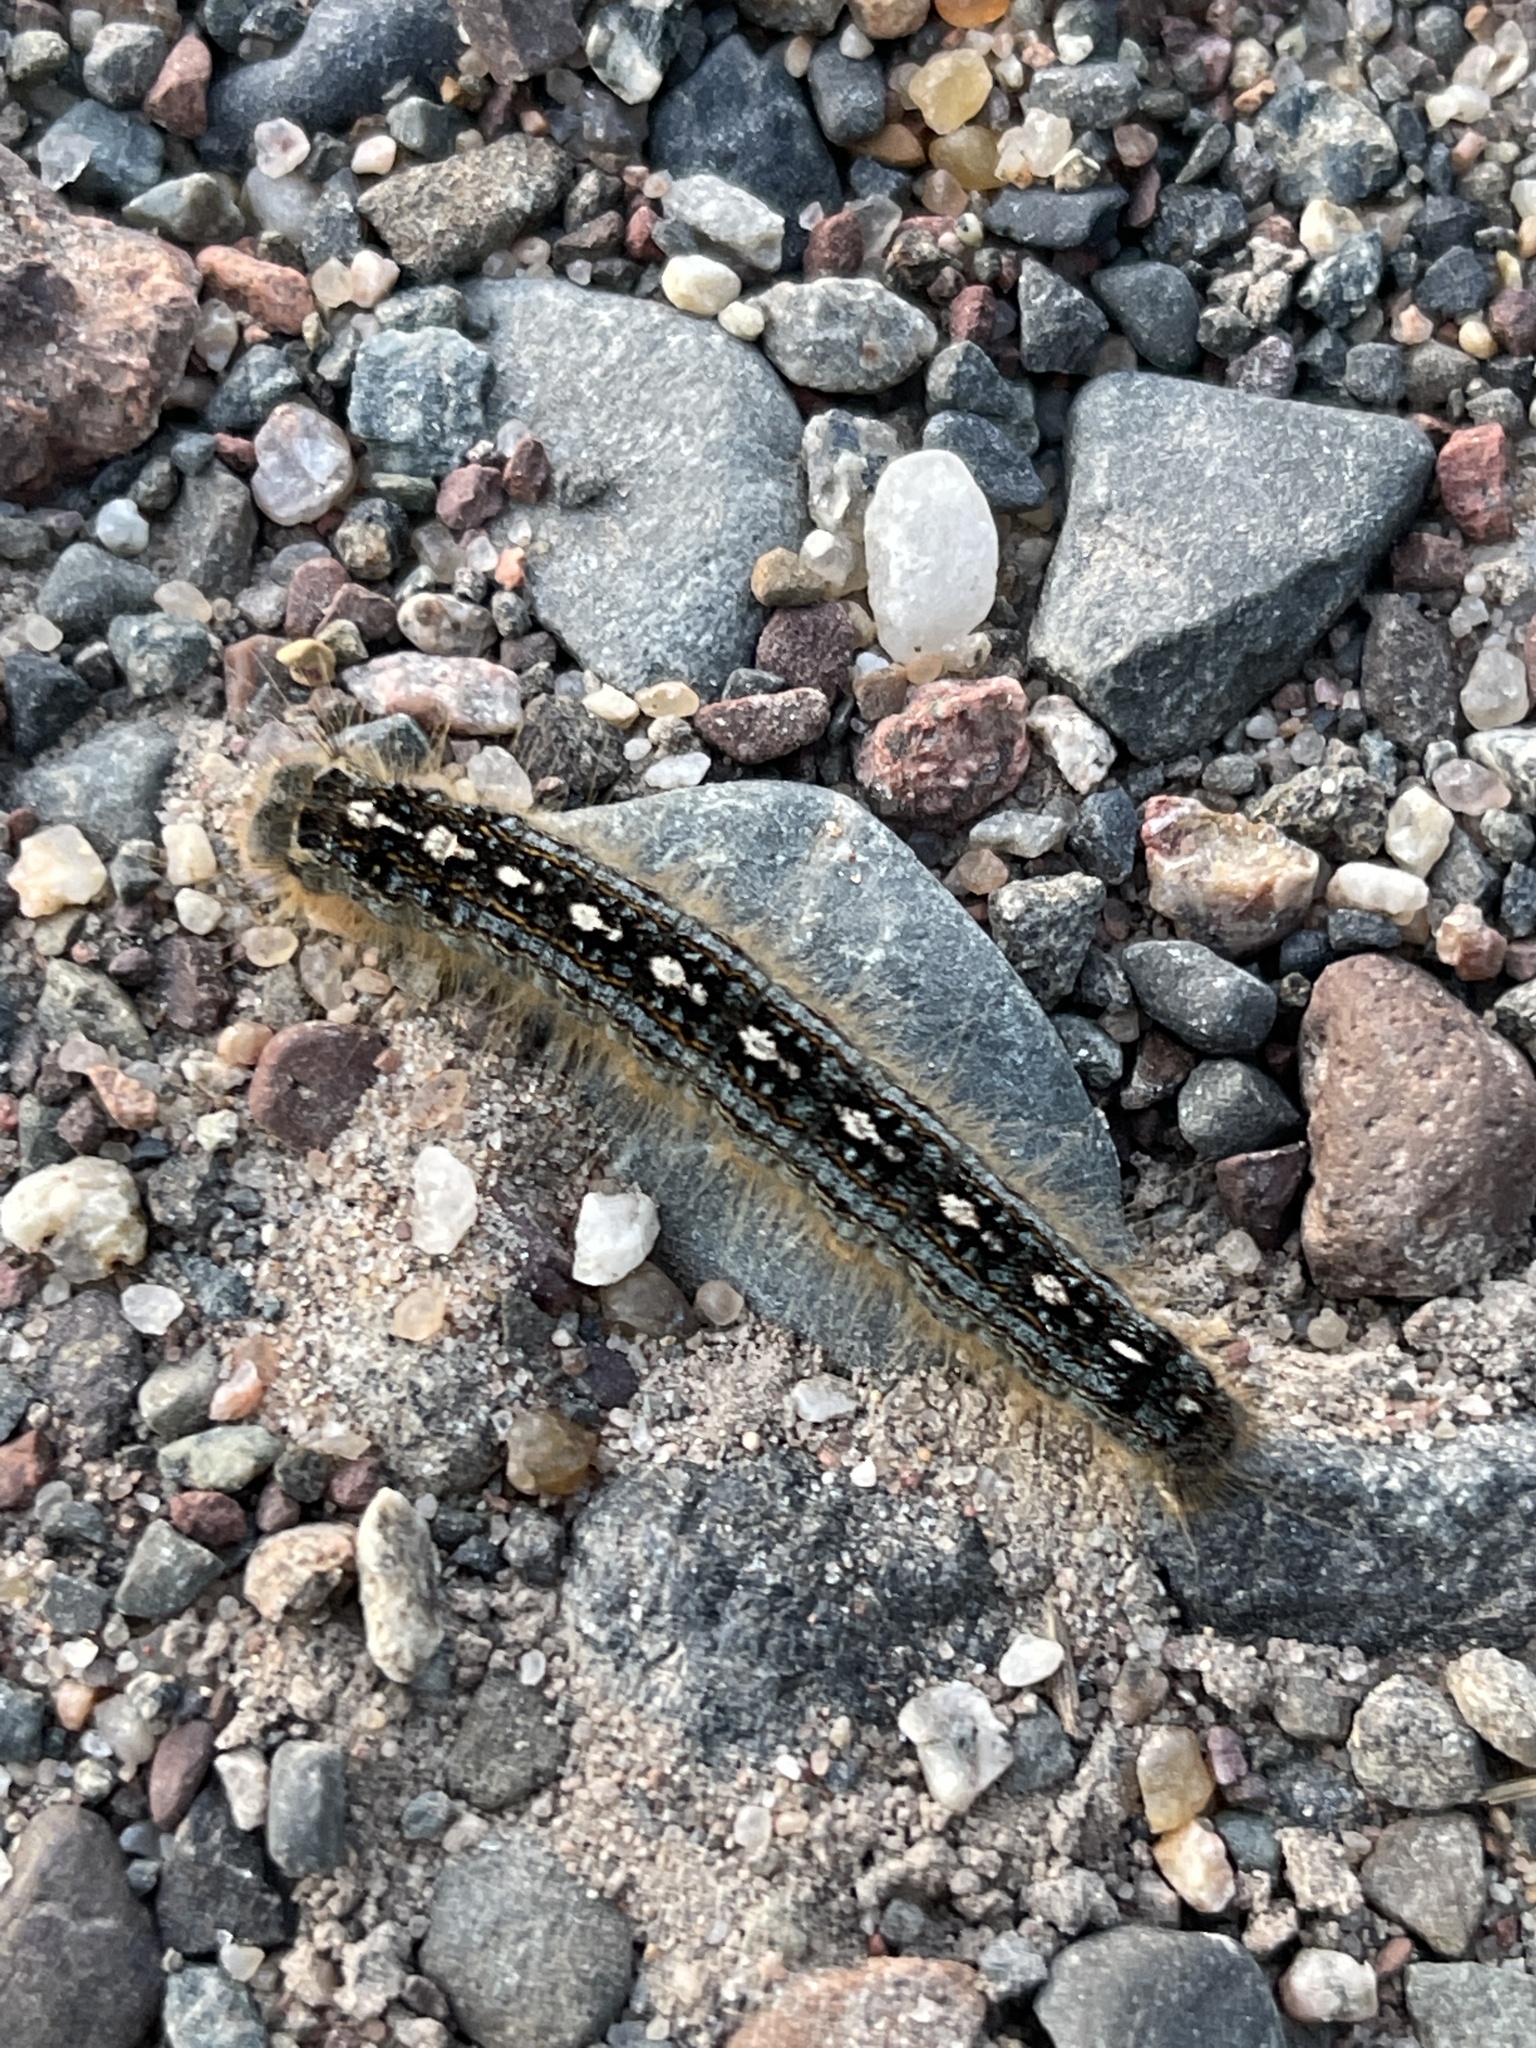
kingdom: Animalia
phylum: Arthropoda
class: Insecta
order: Lepidoptera
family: Lasiocampidae
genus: Malacosoma
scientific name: Malacosoma disstria
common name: Forest tent caterpillar
